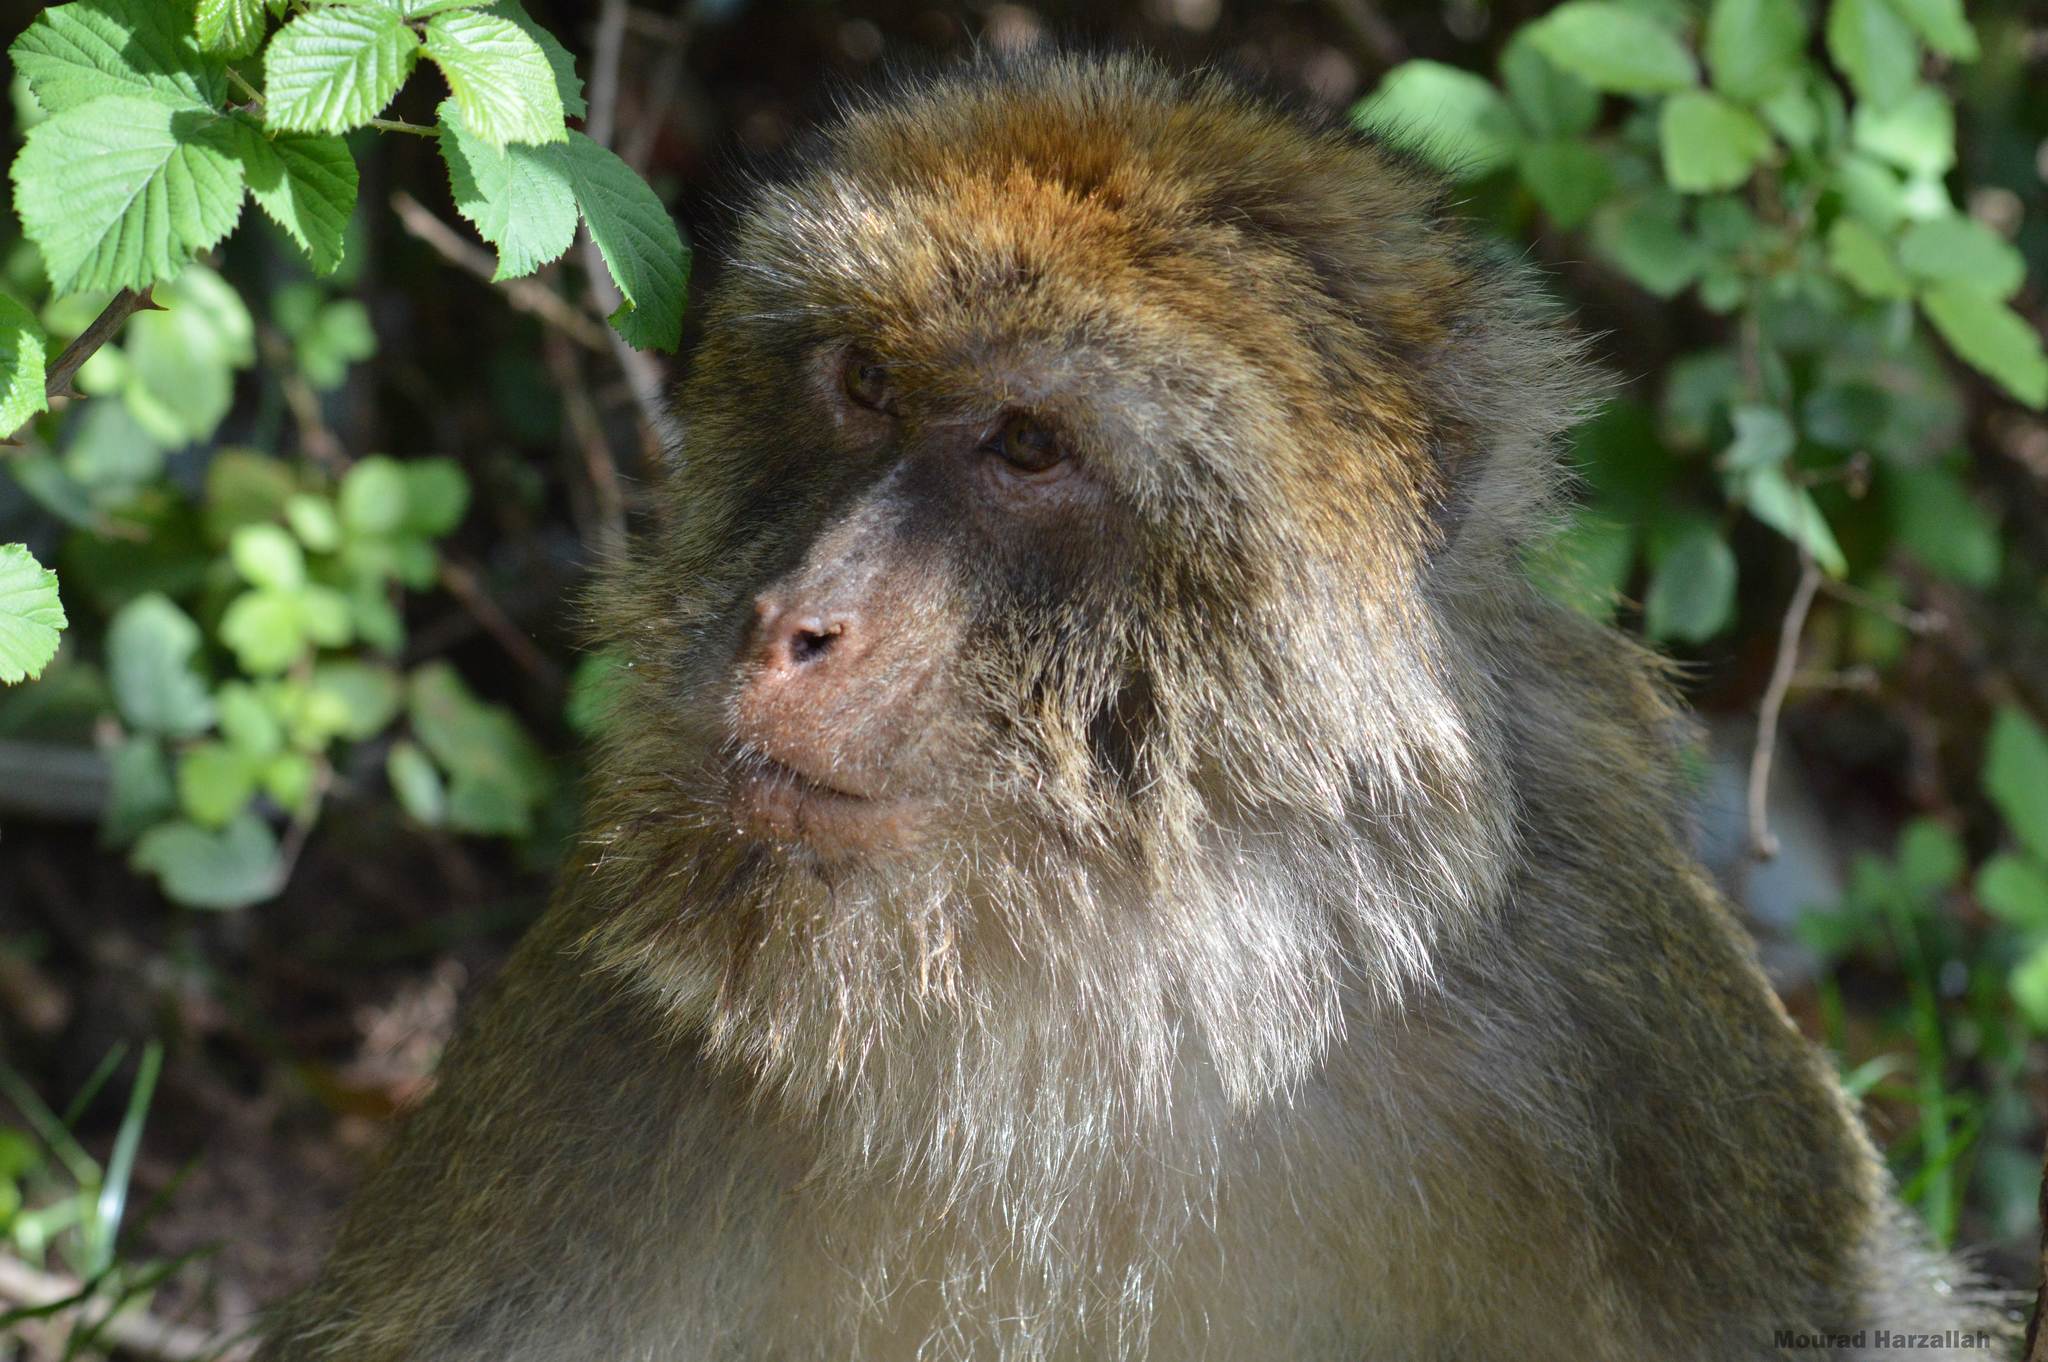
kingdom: Animalia
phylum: Chordata
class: Mammalia
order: Primates
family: Cercopithecidae
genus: Macaca
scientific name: Macaca sylvanus
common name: Barbary macaque
